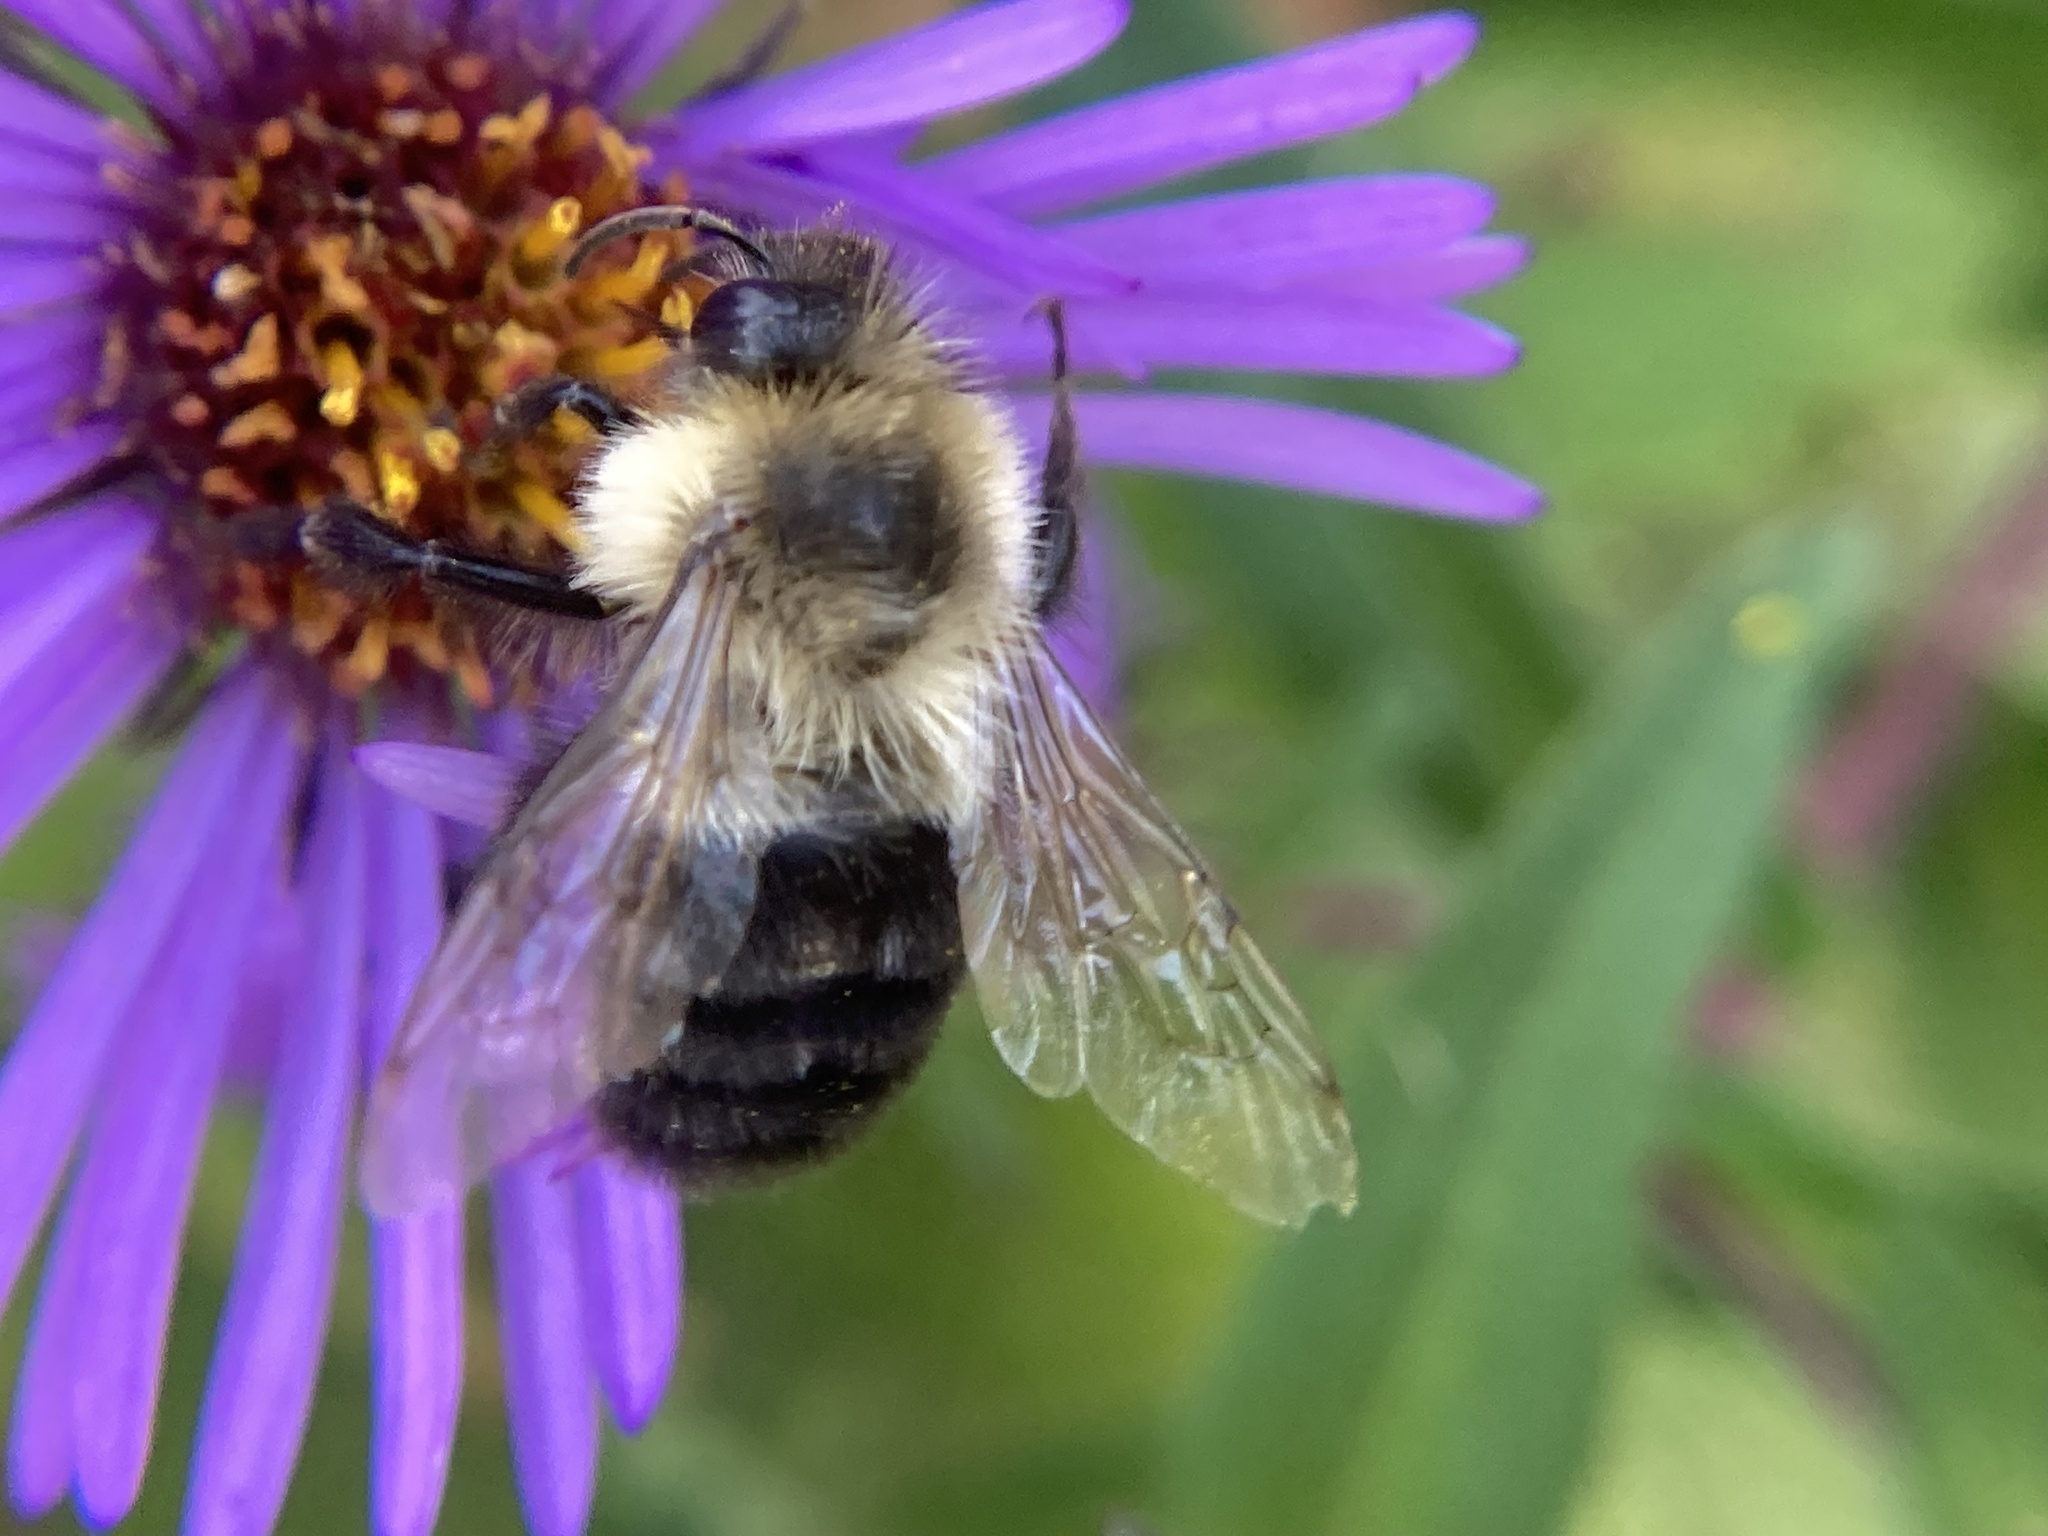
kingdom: Animalia
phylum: Arthropoda
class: Insecta
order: Hymenoptera
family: Apidae
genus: Bombus
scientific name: Bombus impatiens
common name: Common eastern bumble bee
